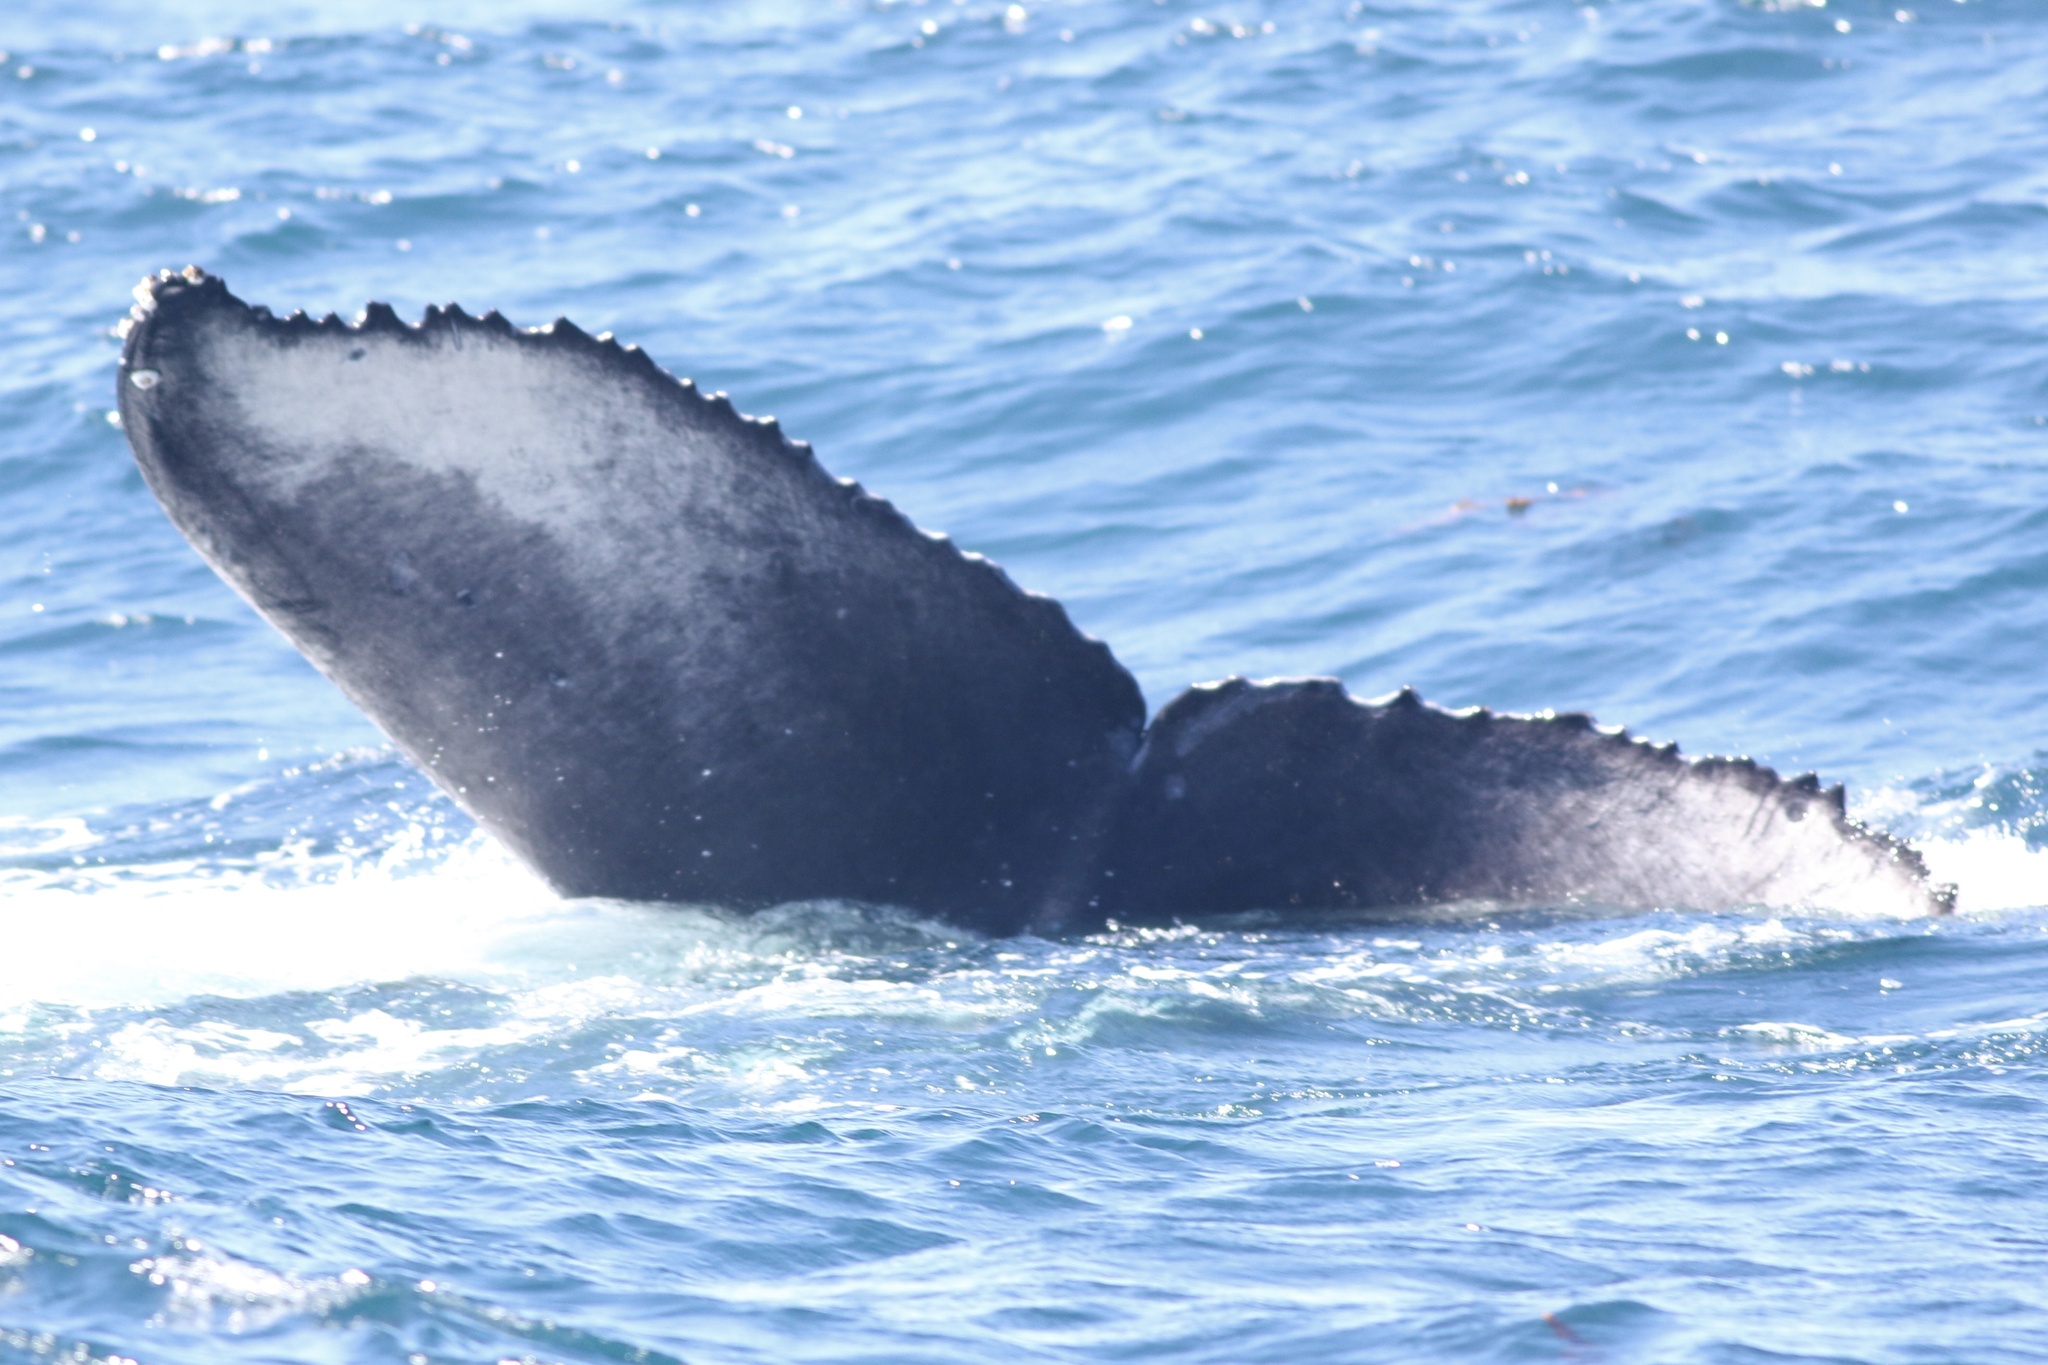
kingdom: Animalia
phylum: Chordata
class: Mammalia
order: Cetacea
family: Balaenopteridae
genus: Megaptera
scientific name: Megaptera novaeangliae
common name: Humpback whale
